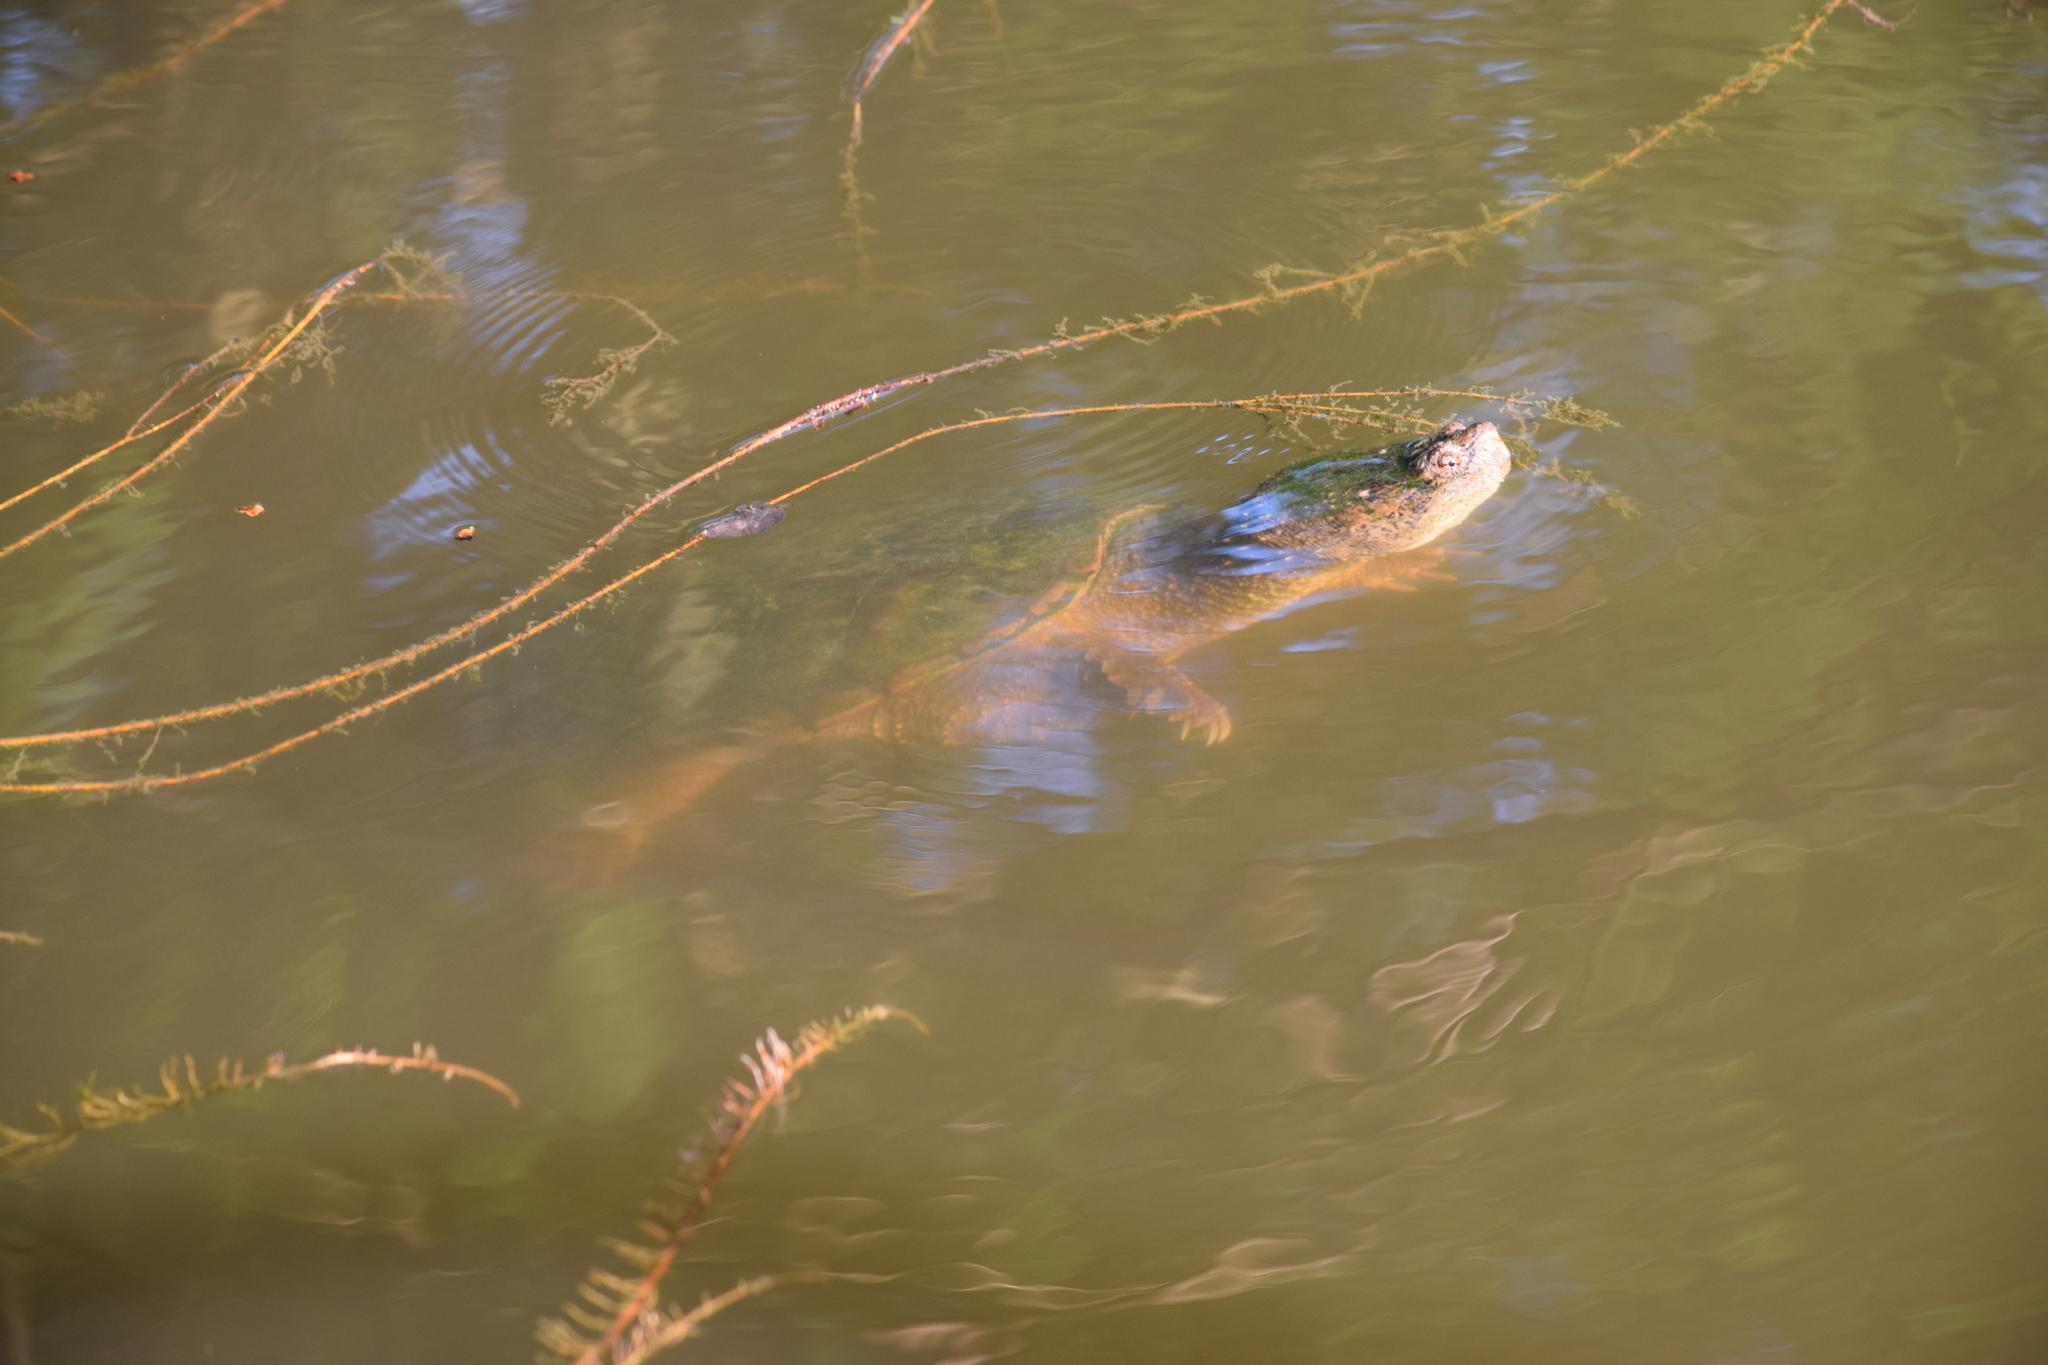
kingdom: Animalia
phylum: Chordata
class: Testudines
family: Chelydridae
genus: Chelydra
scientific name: Chelydra serpentina
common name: Common snapping turtle
